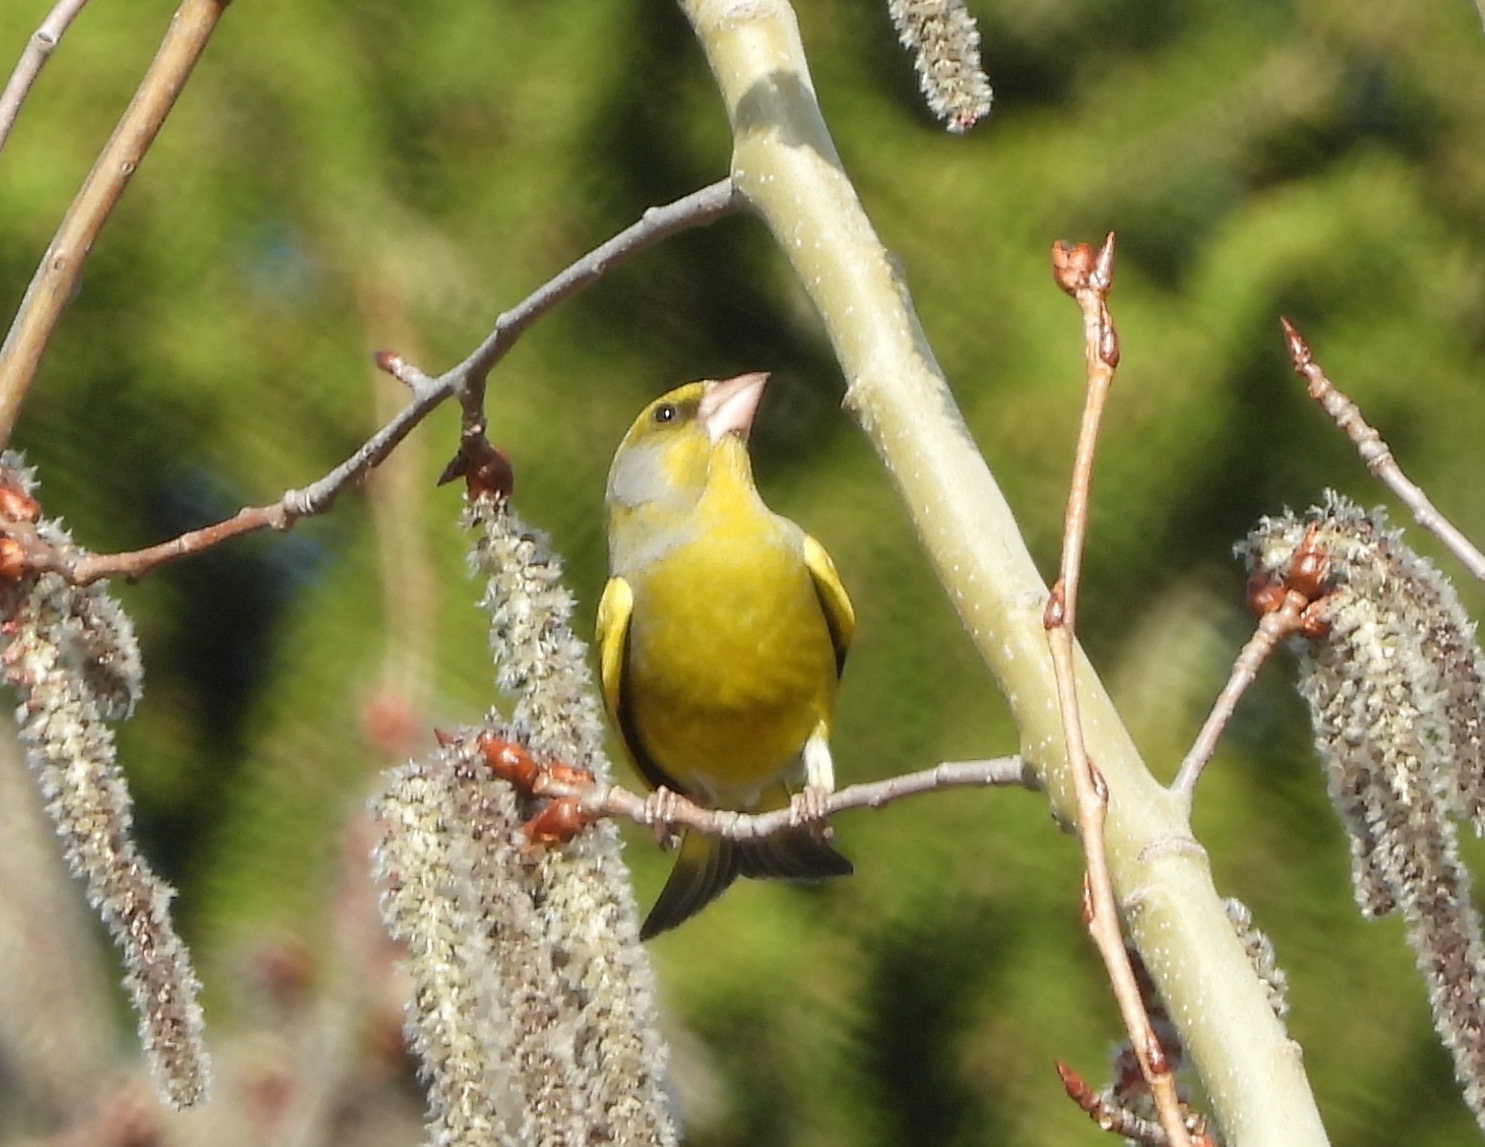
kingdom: Plantae
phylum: Tracheophyta
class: Liliopsida
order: Poales
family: Poaceae
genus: Chloris
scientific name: Chloris chloris
